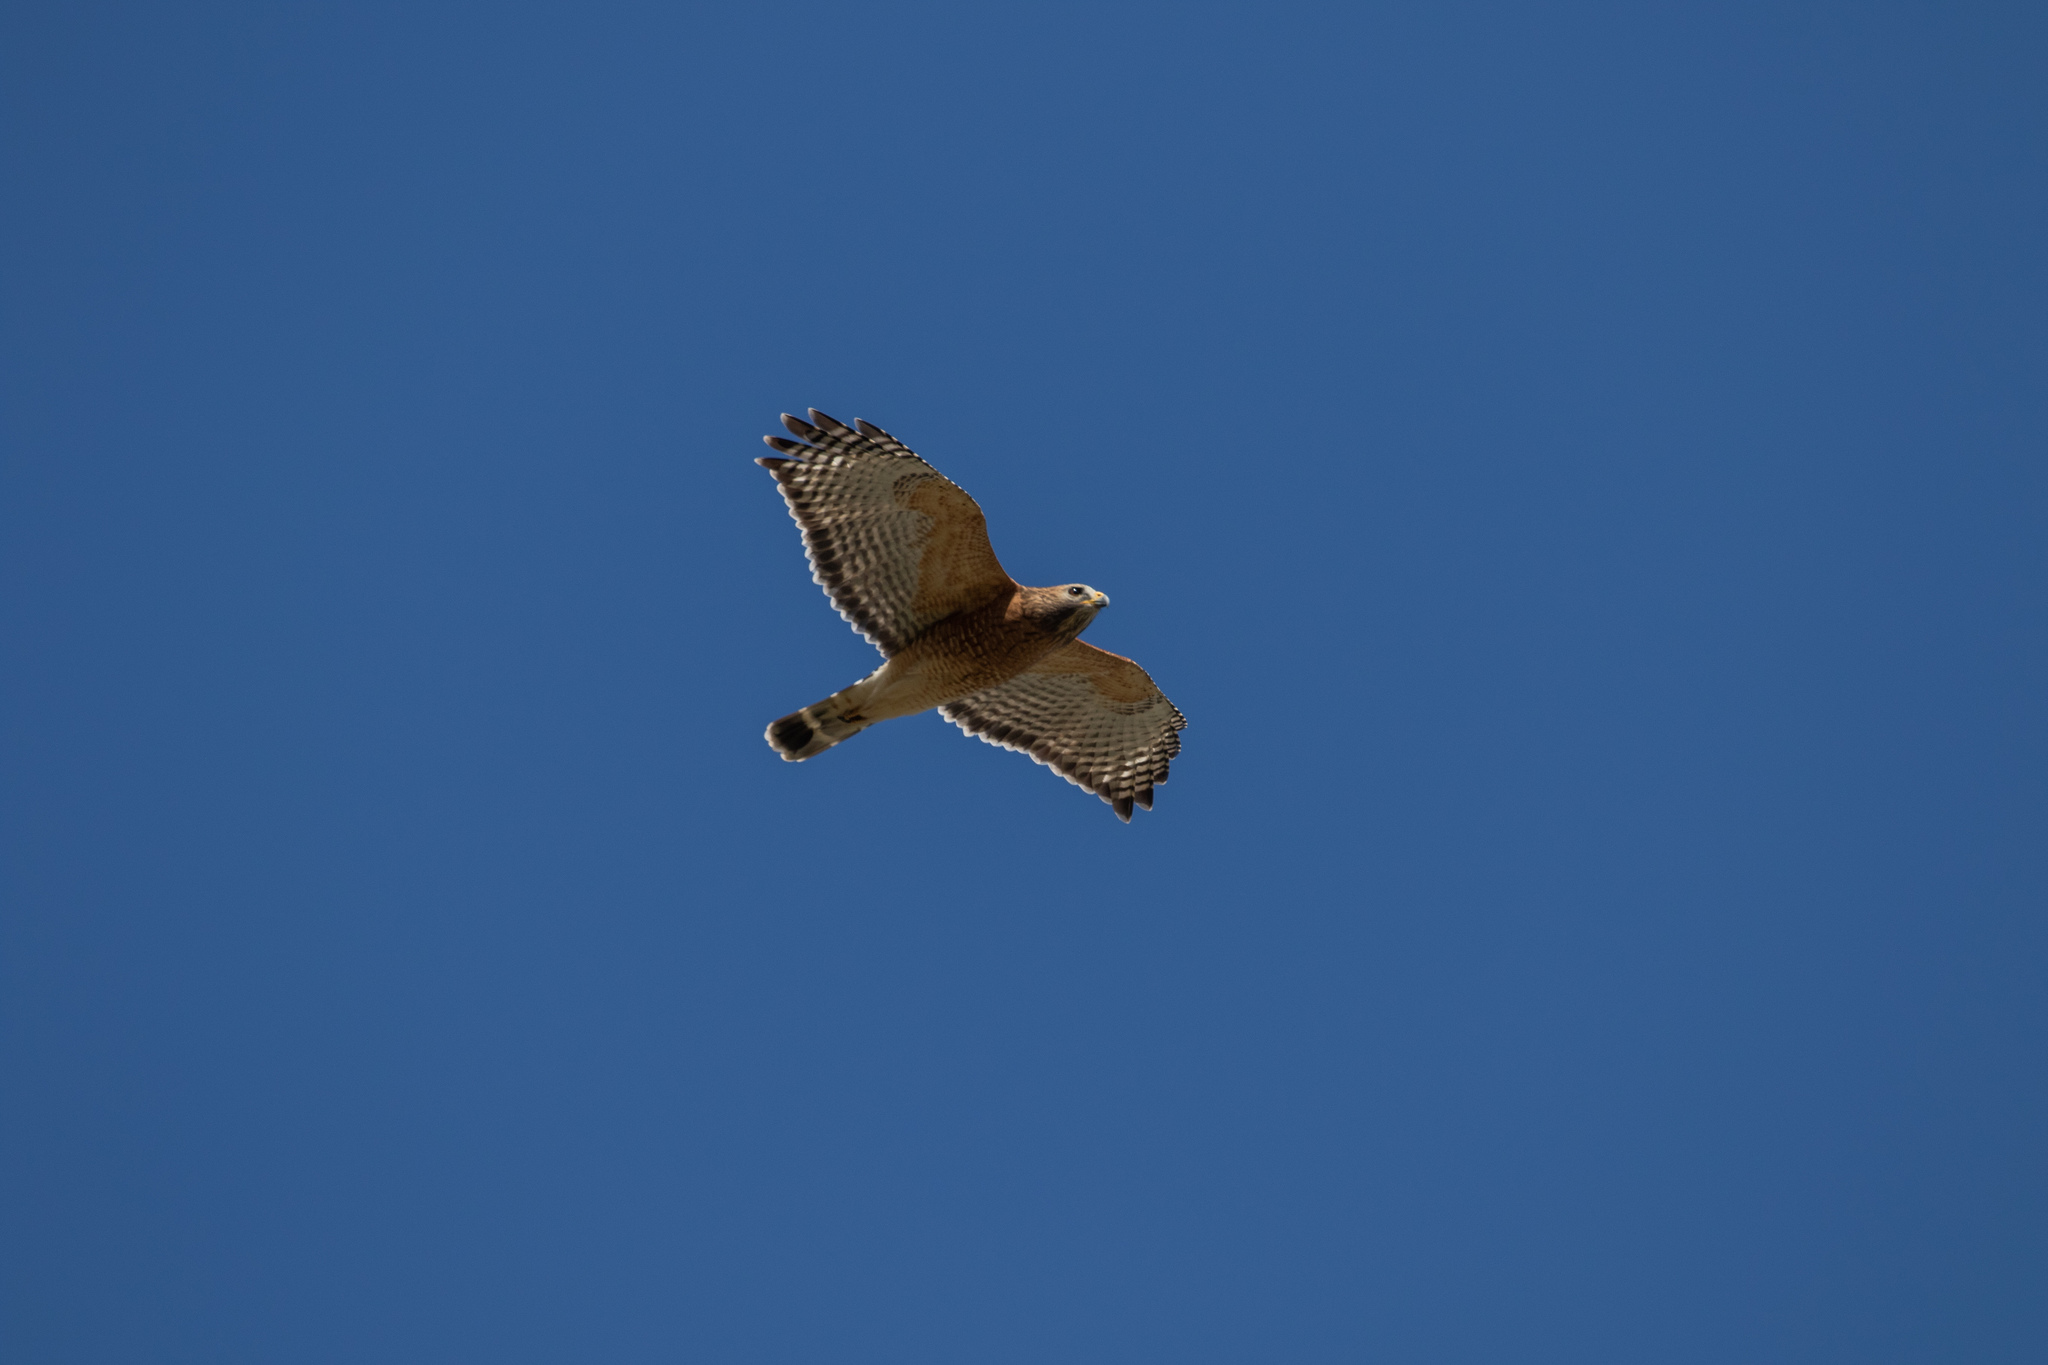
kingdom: Animalia
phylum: Chordata
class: Aves
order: Accipitriformes
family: Accipitridae
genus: Buteo
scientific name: Buteo lineatus
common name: Red-shouldered hawk
